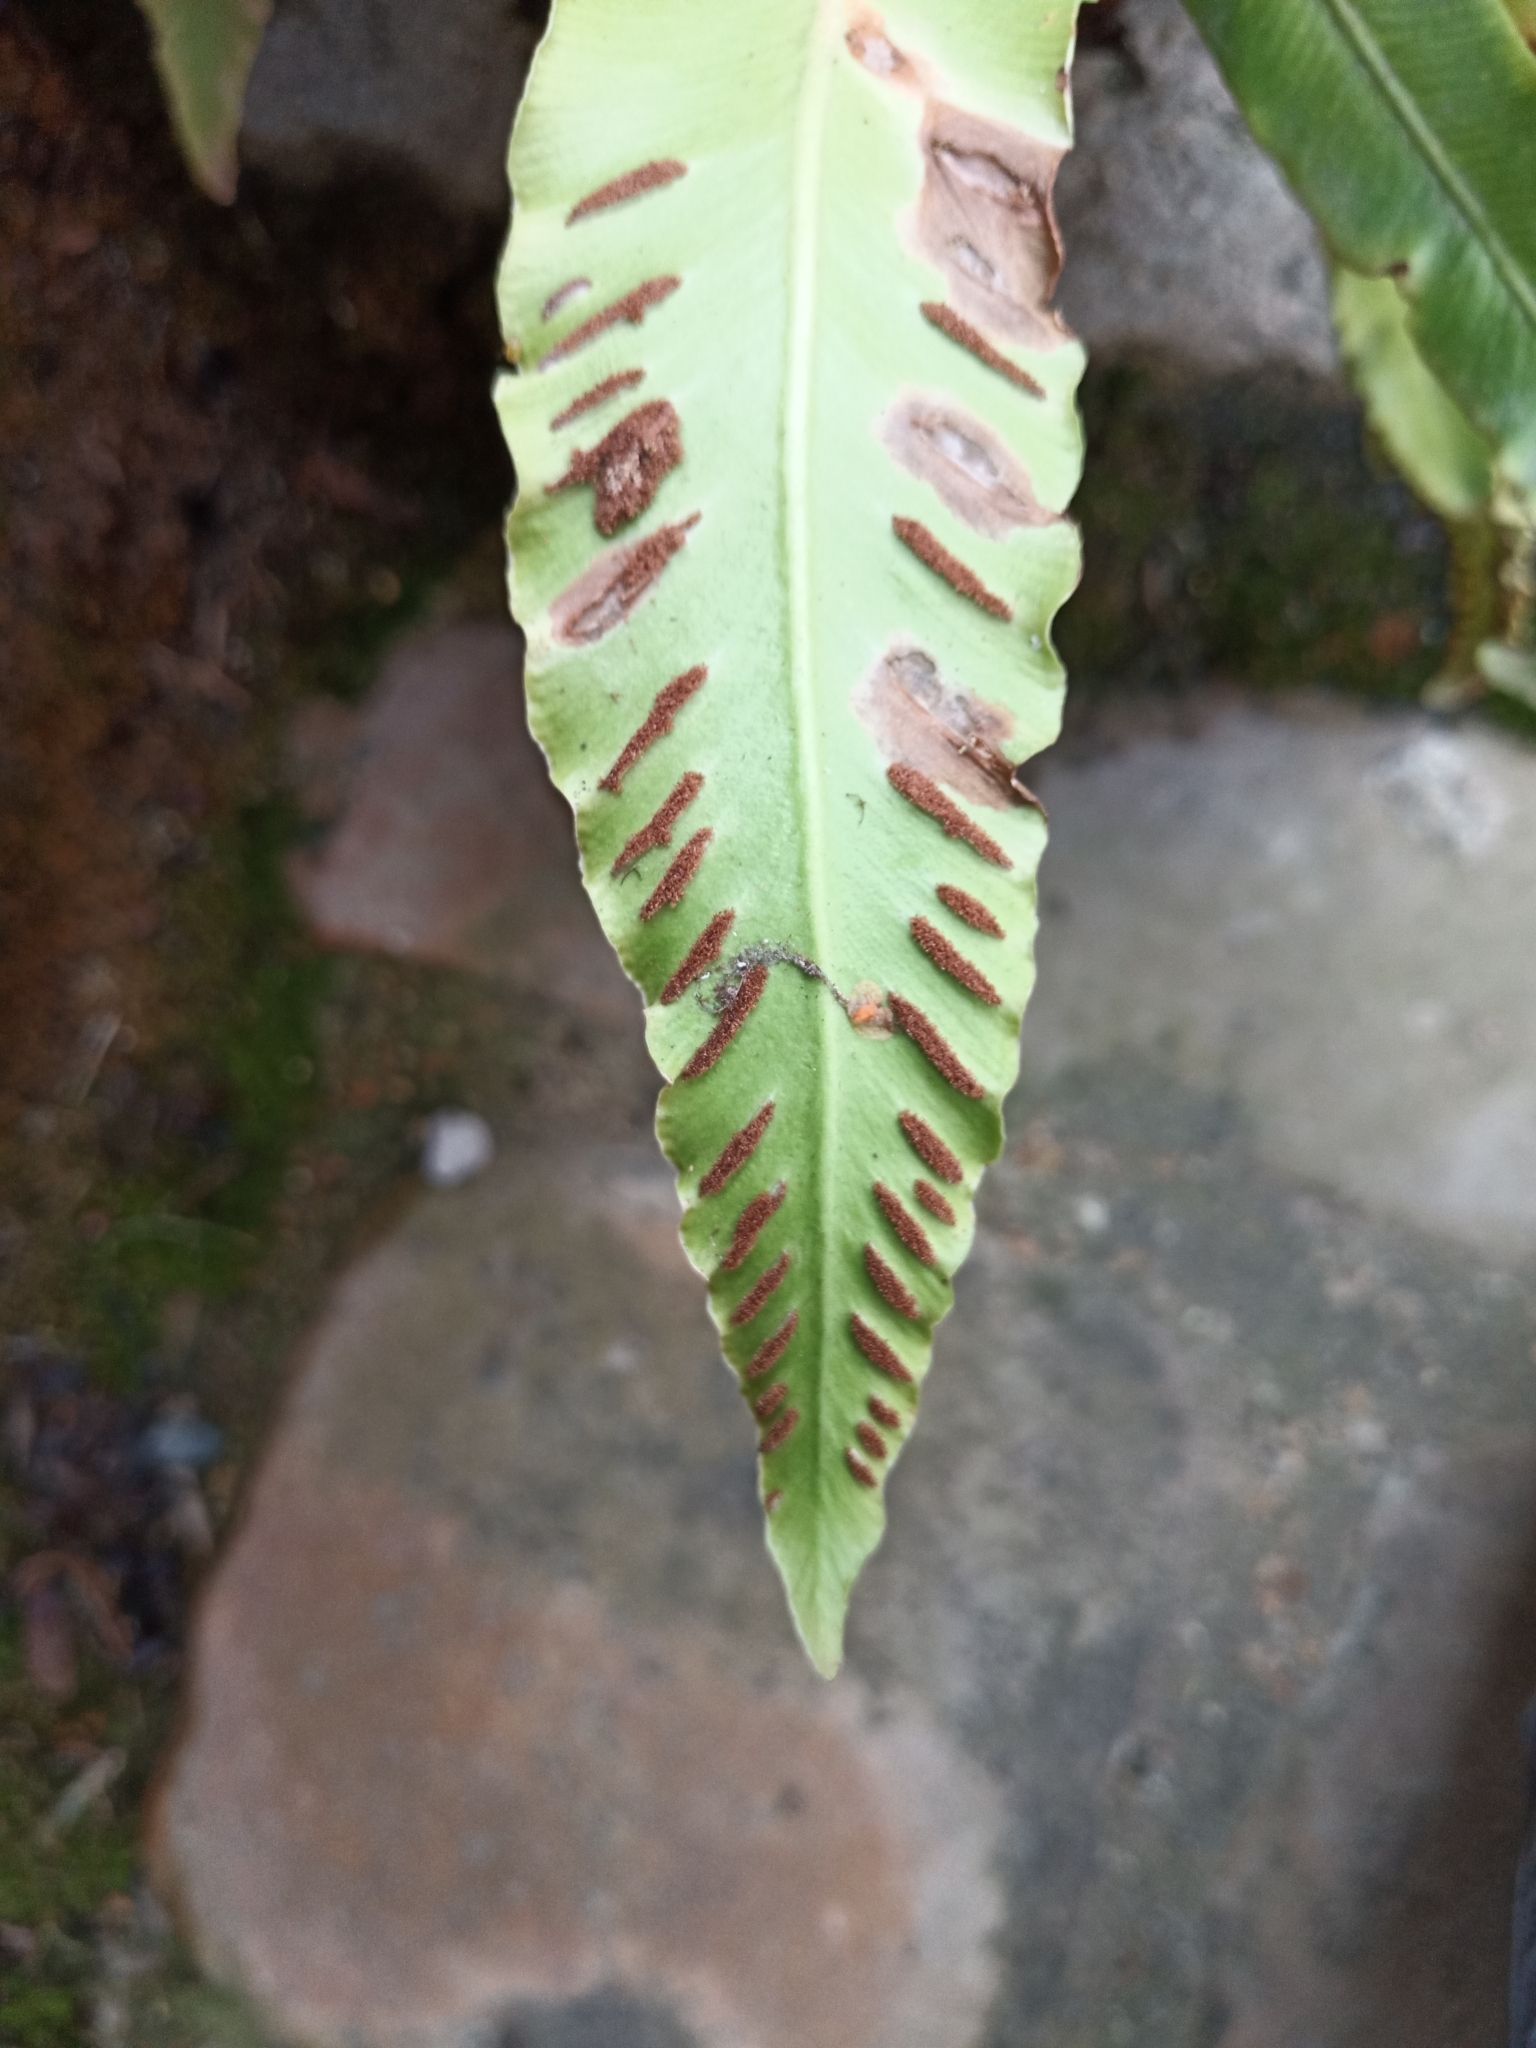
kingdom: Plantae
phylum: Tracheophyta
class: Polypodiopsida
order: Polypodiales
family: Aspleniaceae
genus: Asplenium
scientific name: Asplenium scolopendrium
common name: Hart's-tongue fern
